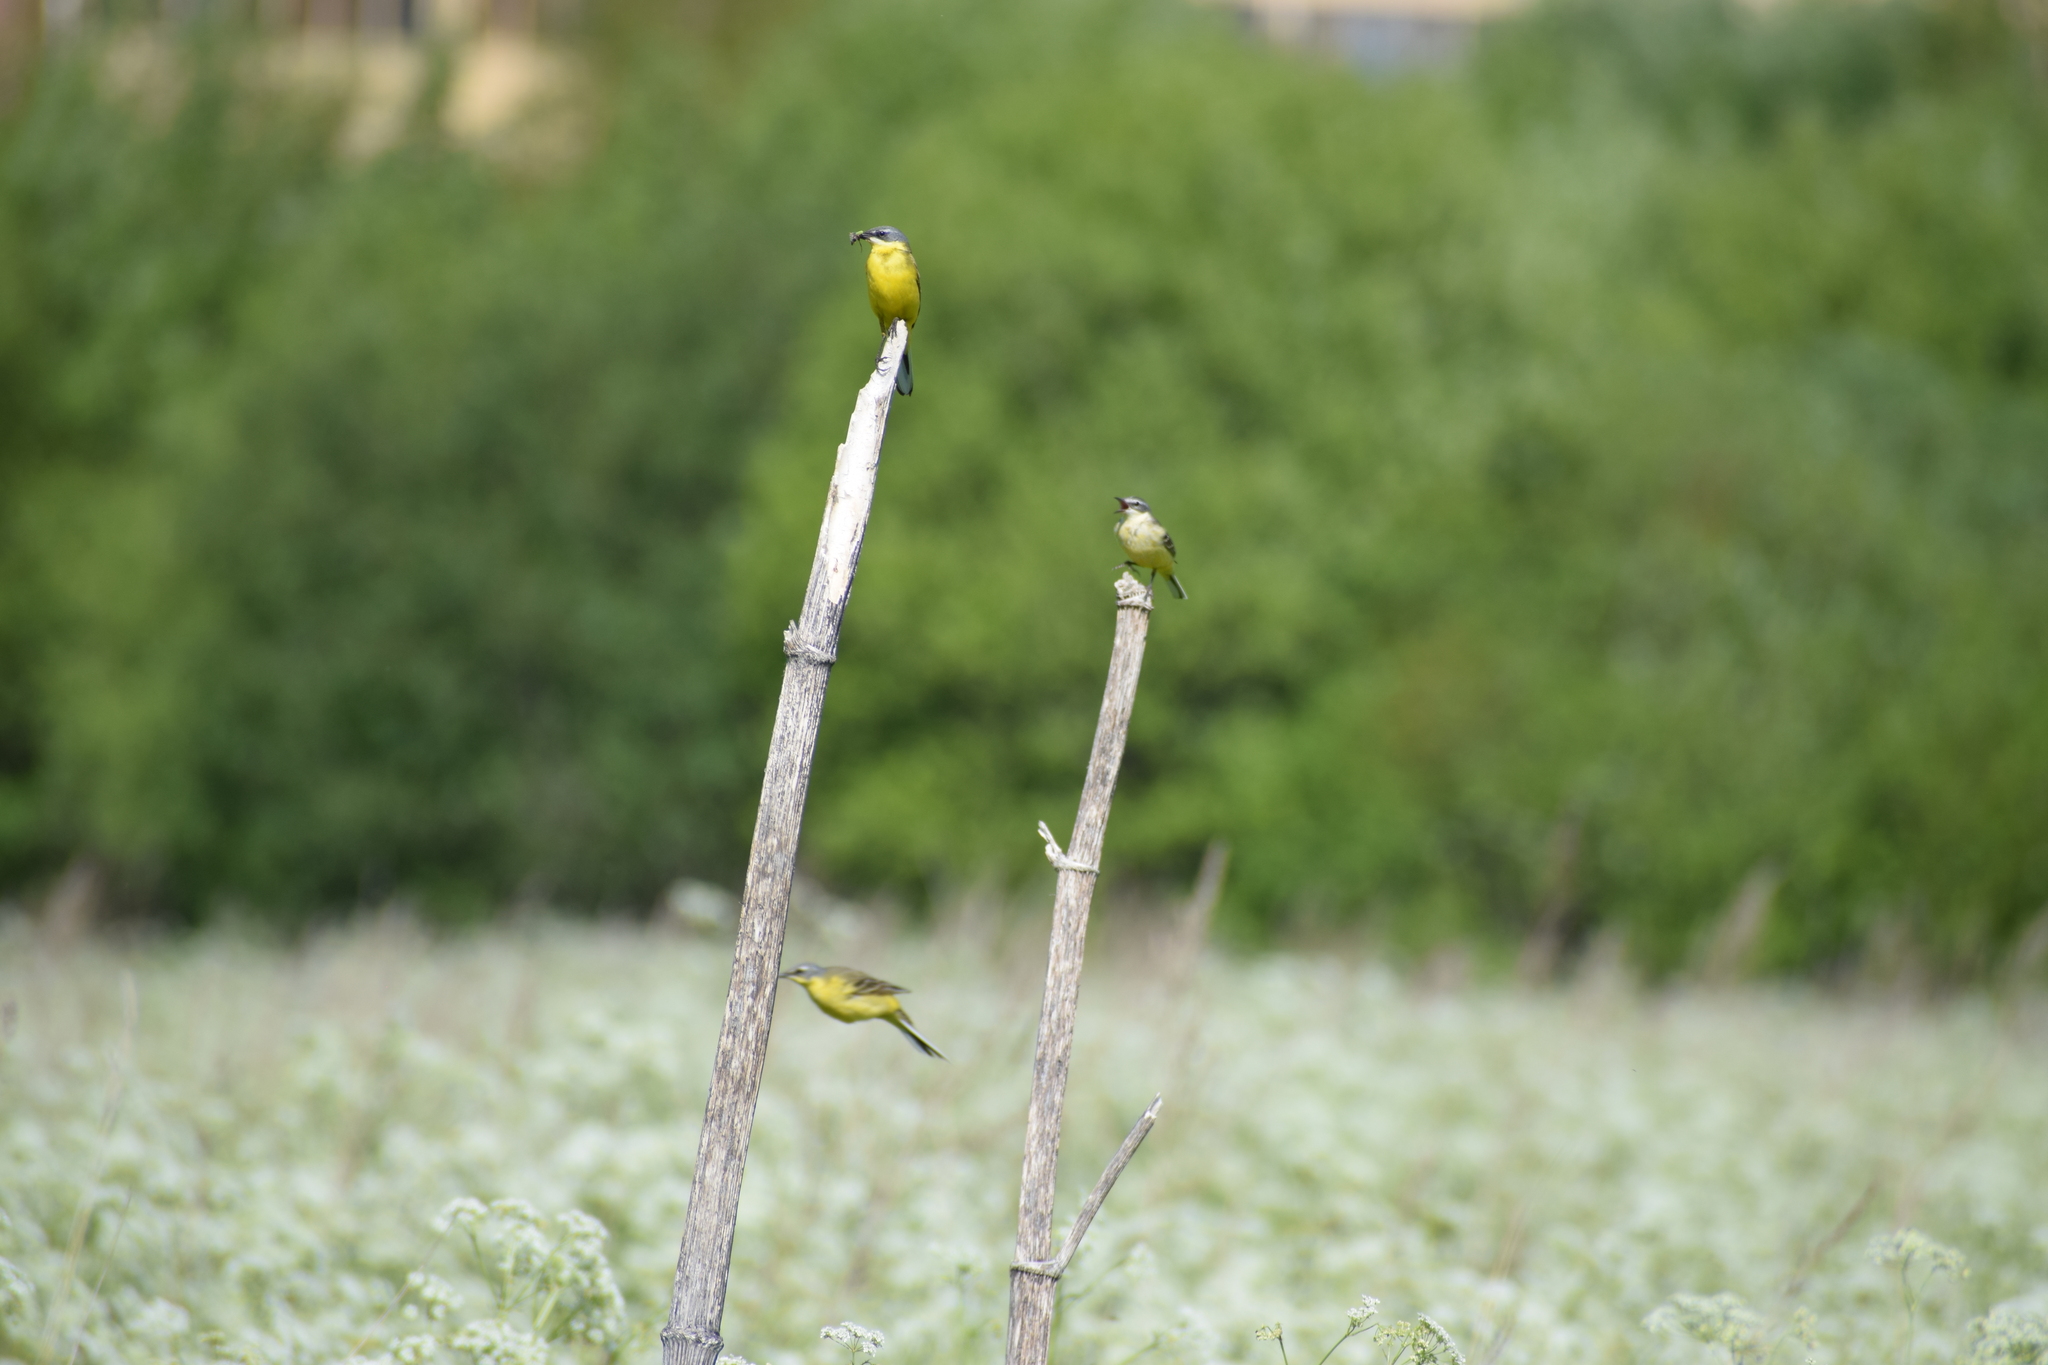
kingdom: Animalia
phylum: Chordata
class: Aves
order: Passeriformes
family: Motacillidae
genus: Motacilla
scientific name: Motacilla flava
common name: Western yellow wagtail
